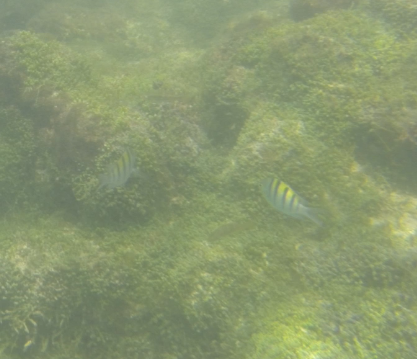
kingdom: Animalia
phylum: Chordata
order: Perciformes
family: Pomacentridae
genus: Abudefduf
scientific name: Abudefduf troschelii
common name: Panamic sergeant major
